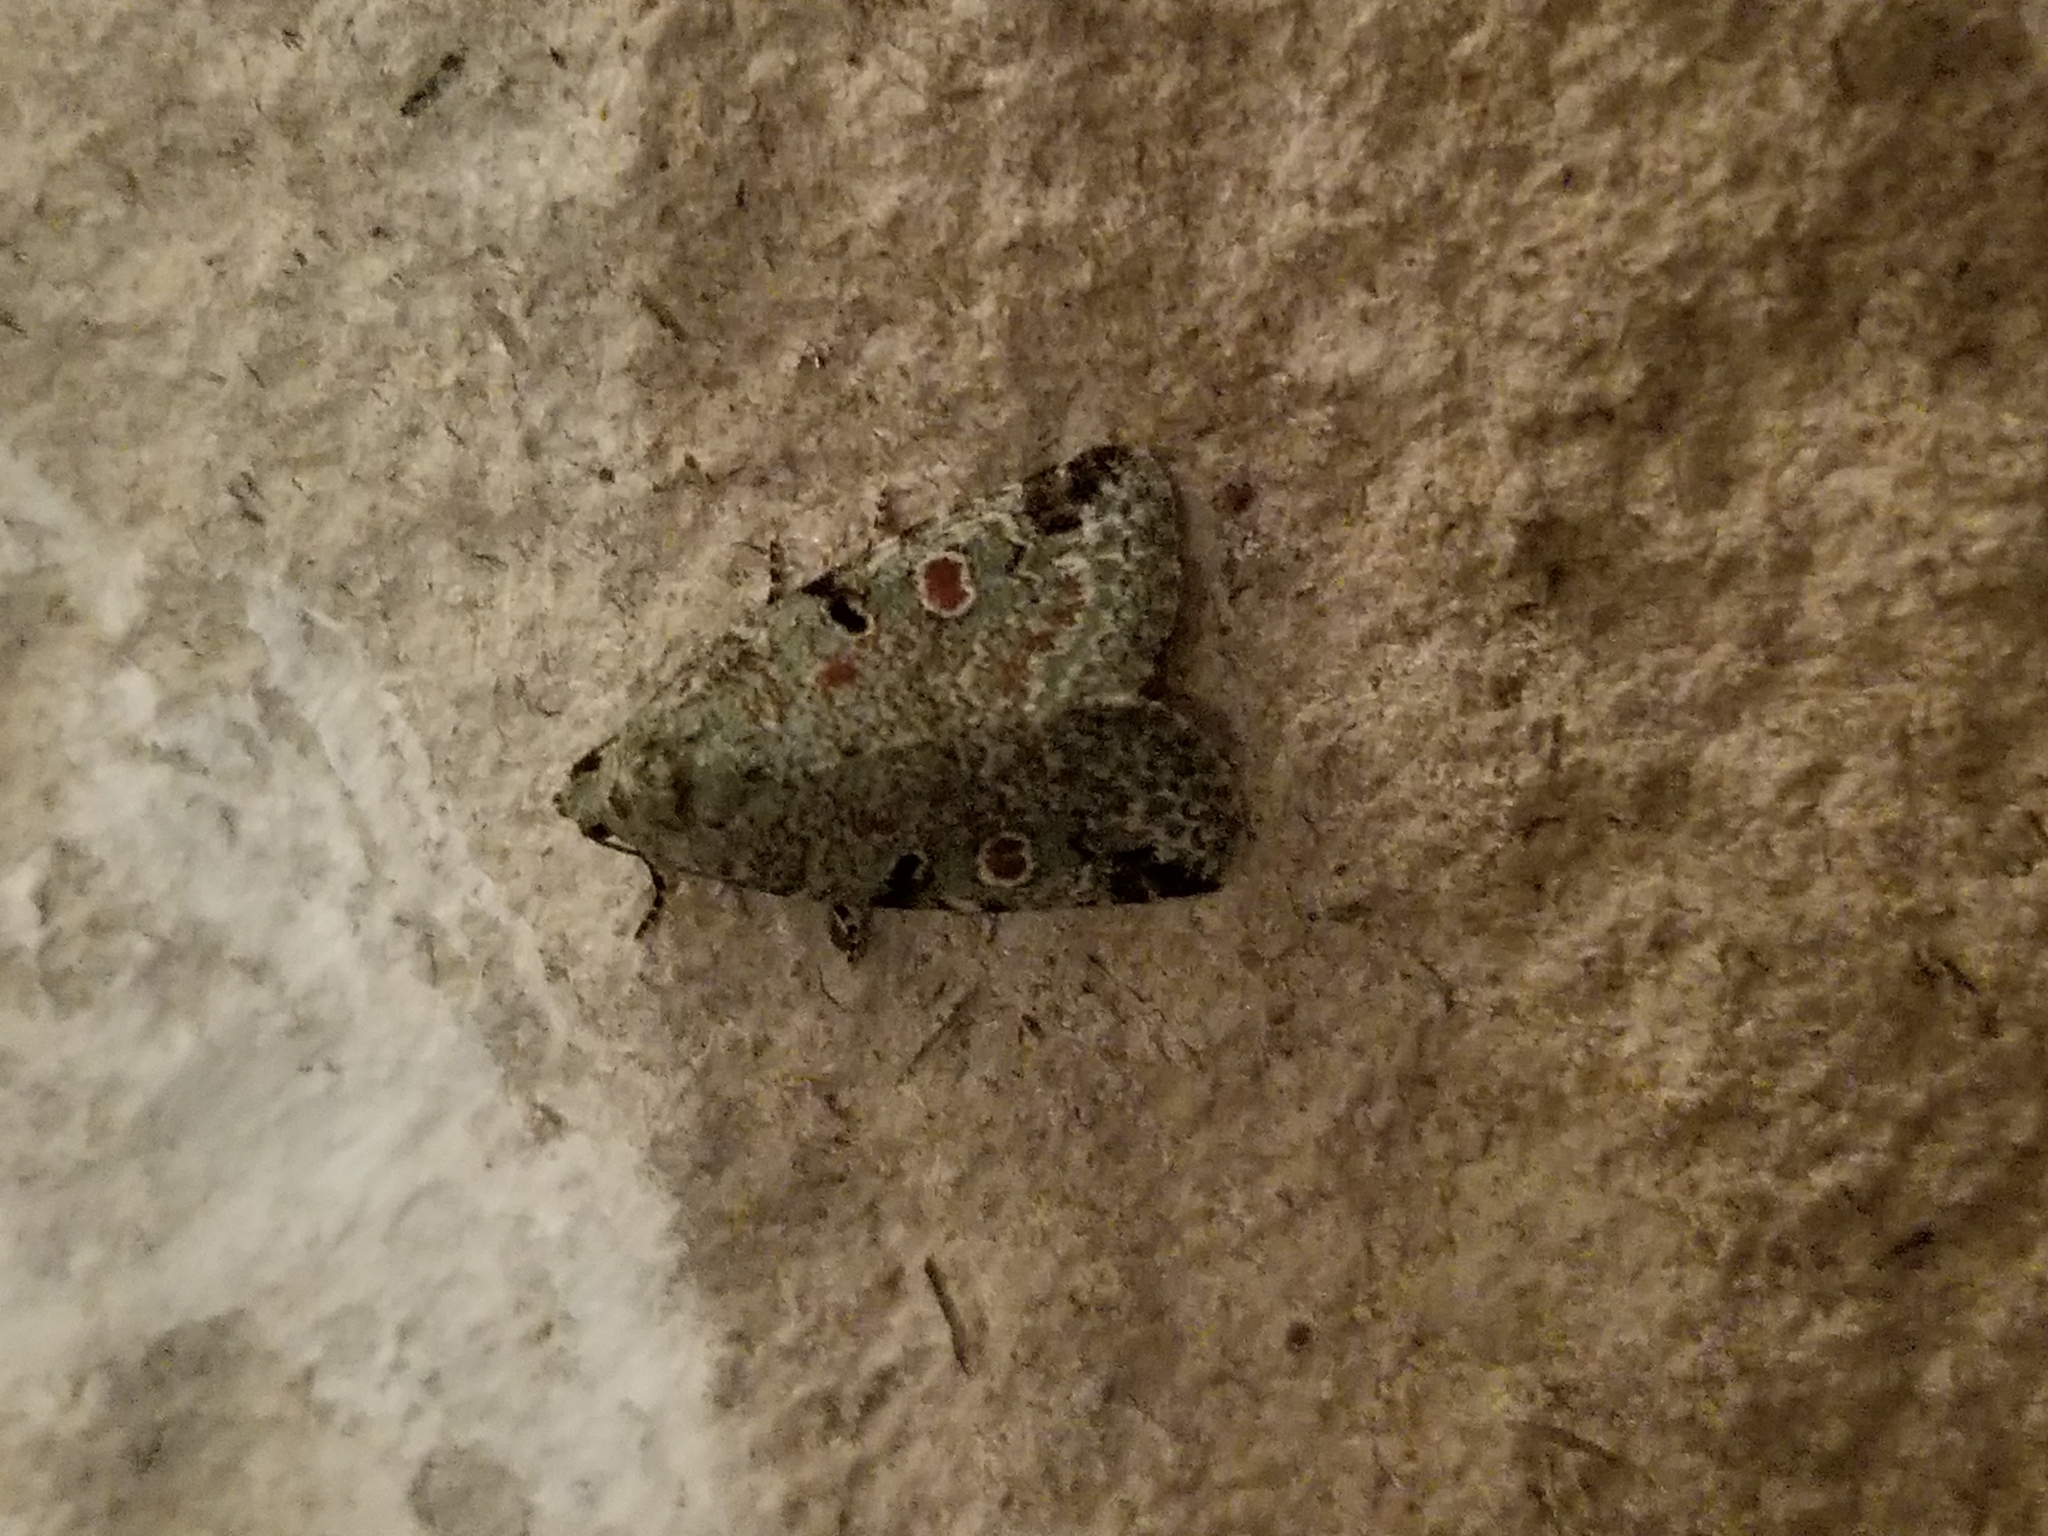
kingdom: Animalia
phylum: Arthropoda
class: Insecta
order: Lepidoptera
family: Noctuidae
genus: Maliattha
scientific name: Maliattha concinnimacula
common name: Red-spotted glyph
